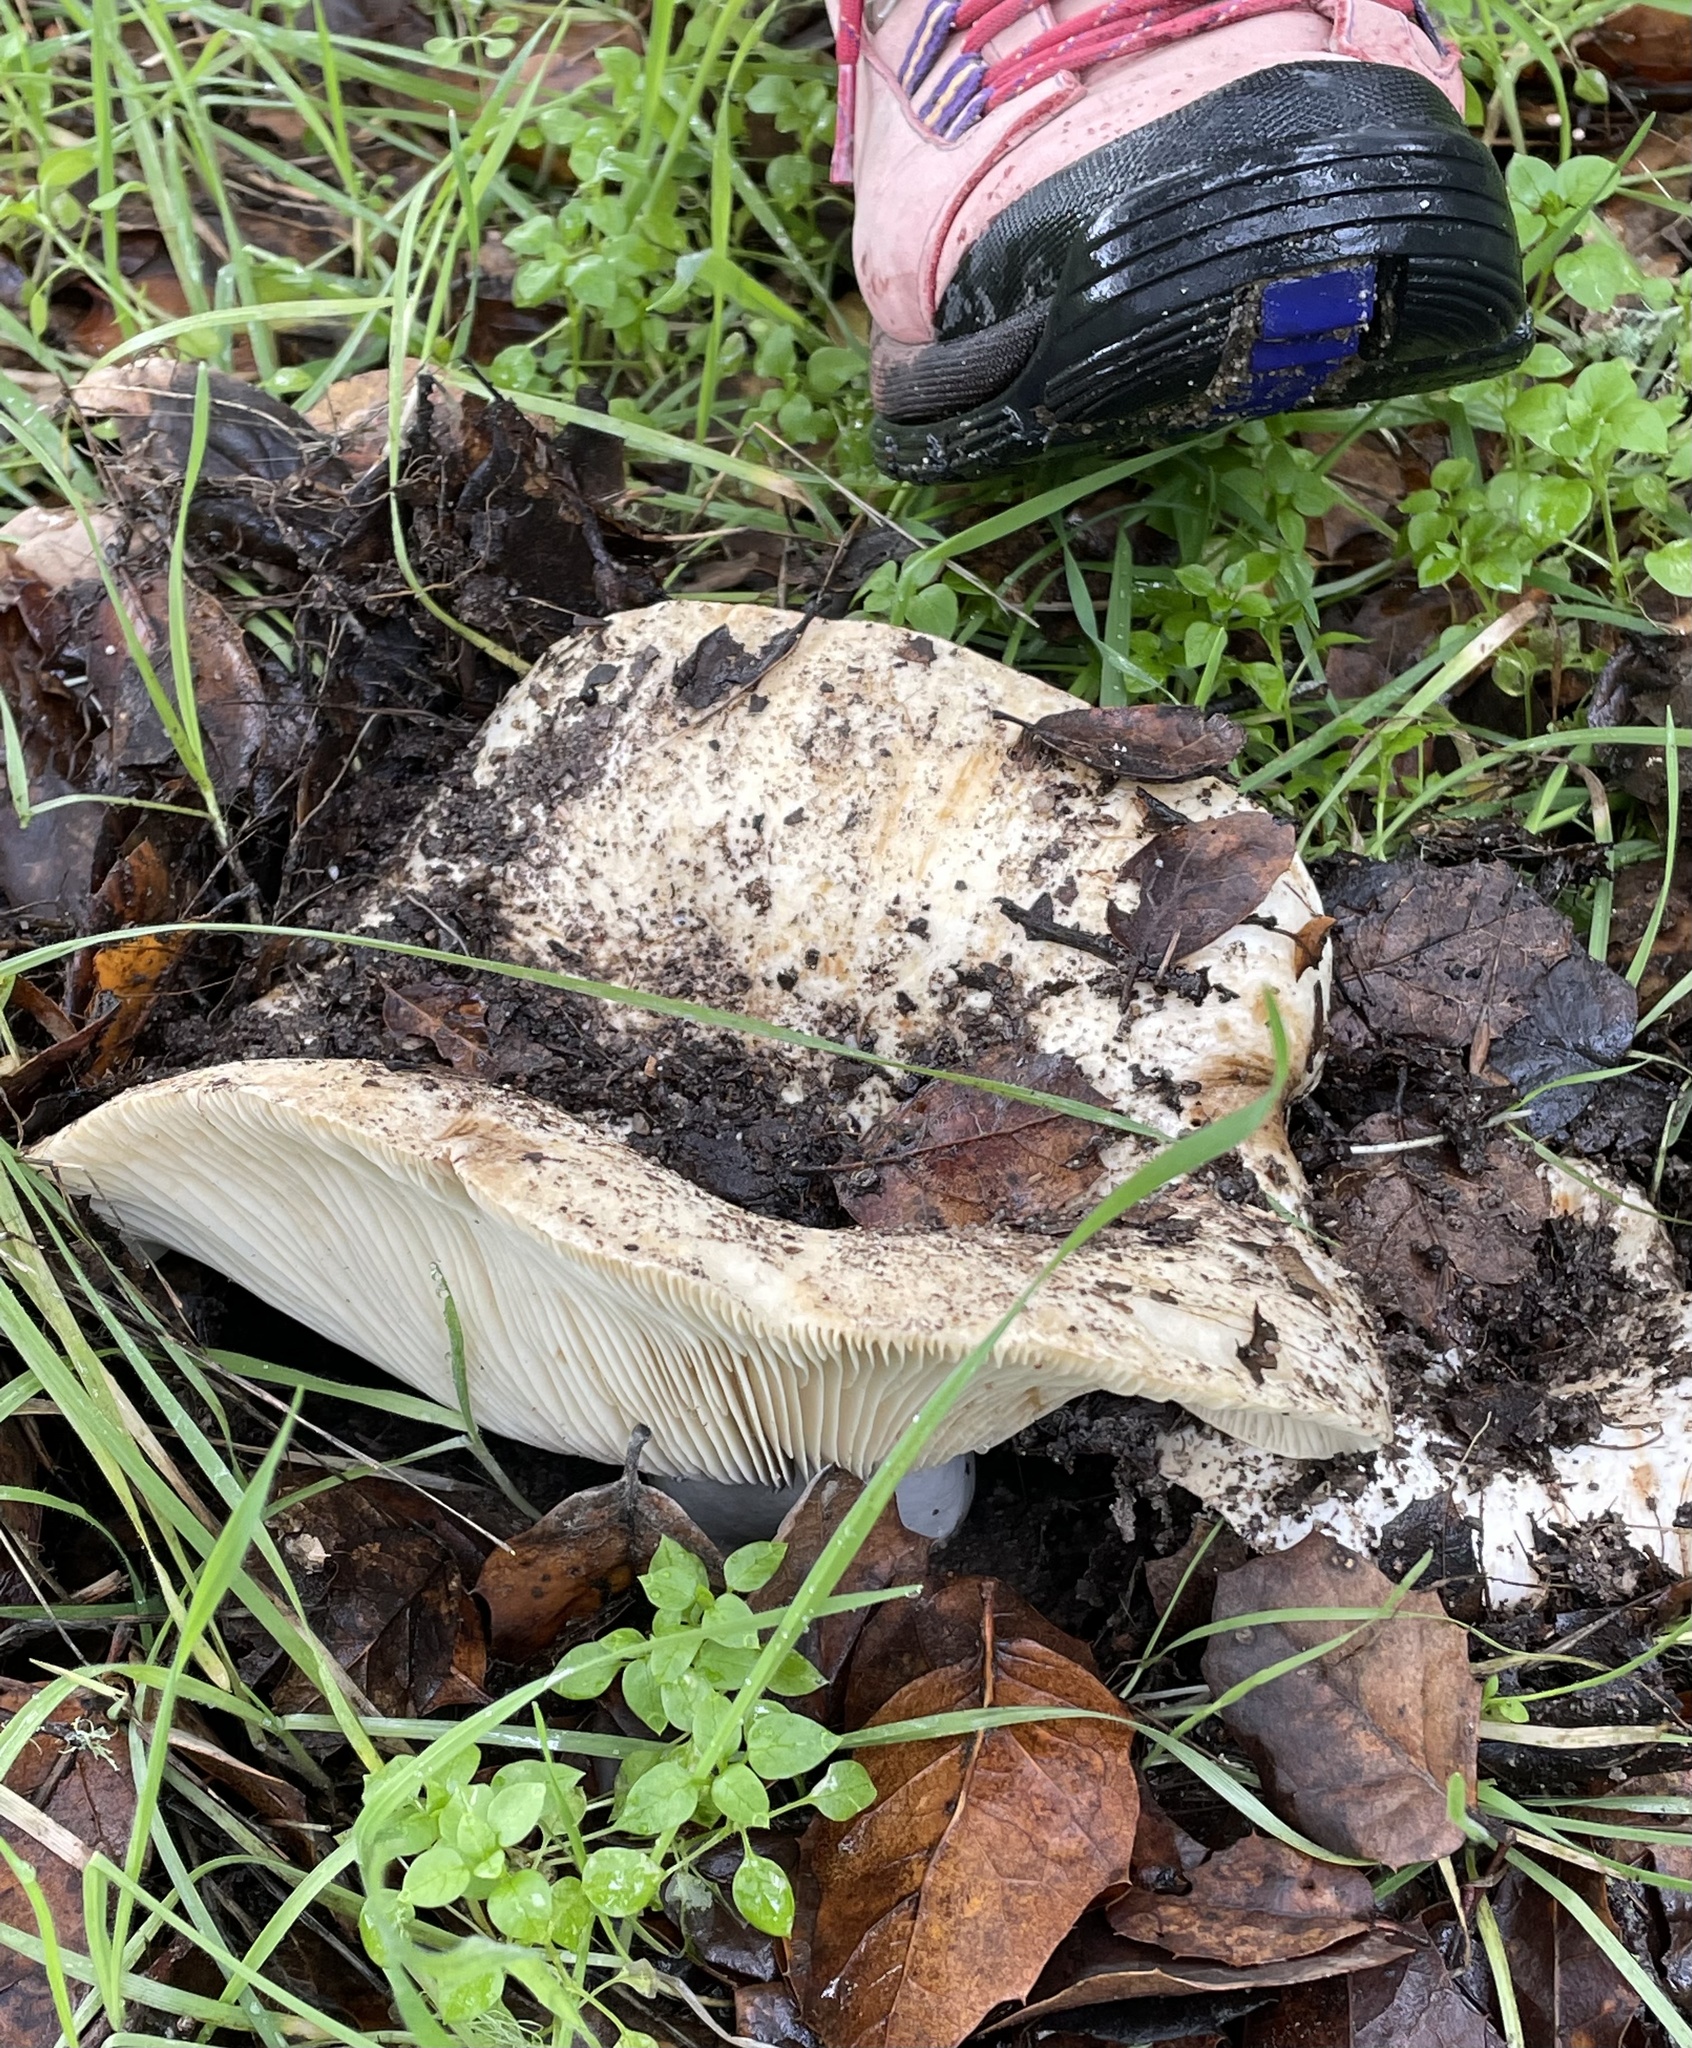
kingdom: Fungi
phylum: Basidiomycota
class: Agaricomycetes
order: Russulales
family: Russulaceae
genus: Russula
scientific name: Russula brevipes
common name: Short-stemmed russula
